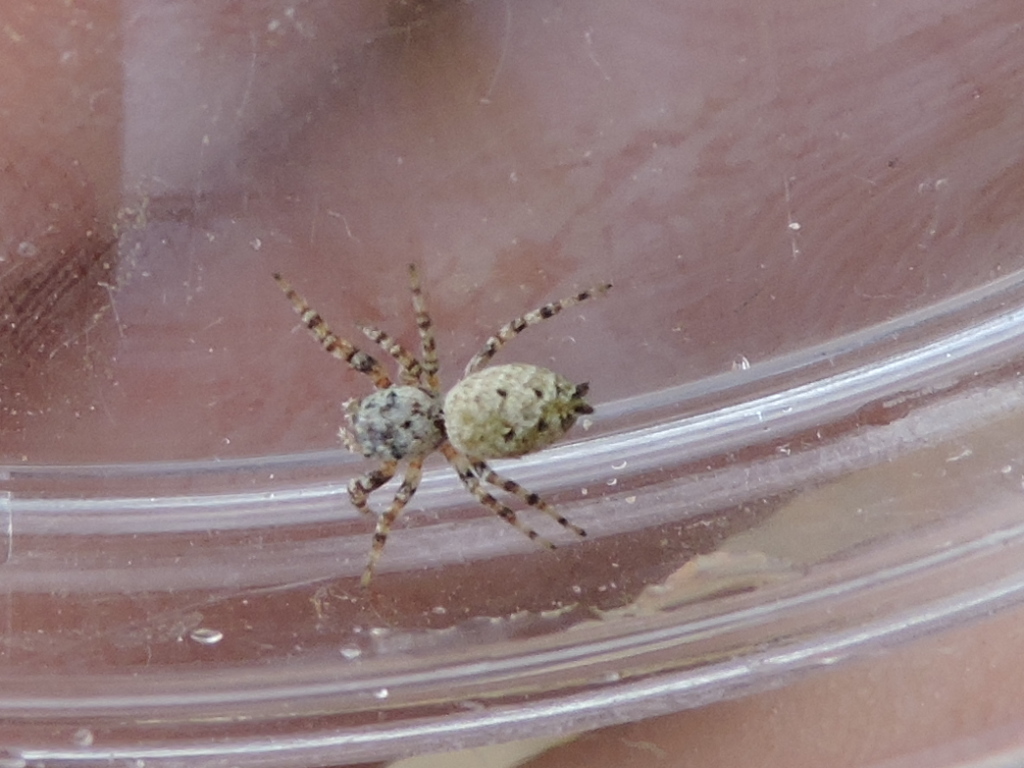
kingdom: Animalia
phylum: Arthropoda
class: Arachnida
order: Araneae
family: Salticidae
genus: Pelegrina
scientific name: Pelegrina galathea
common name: Jumping spiders
